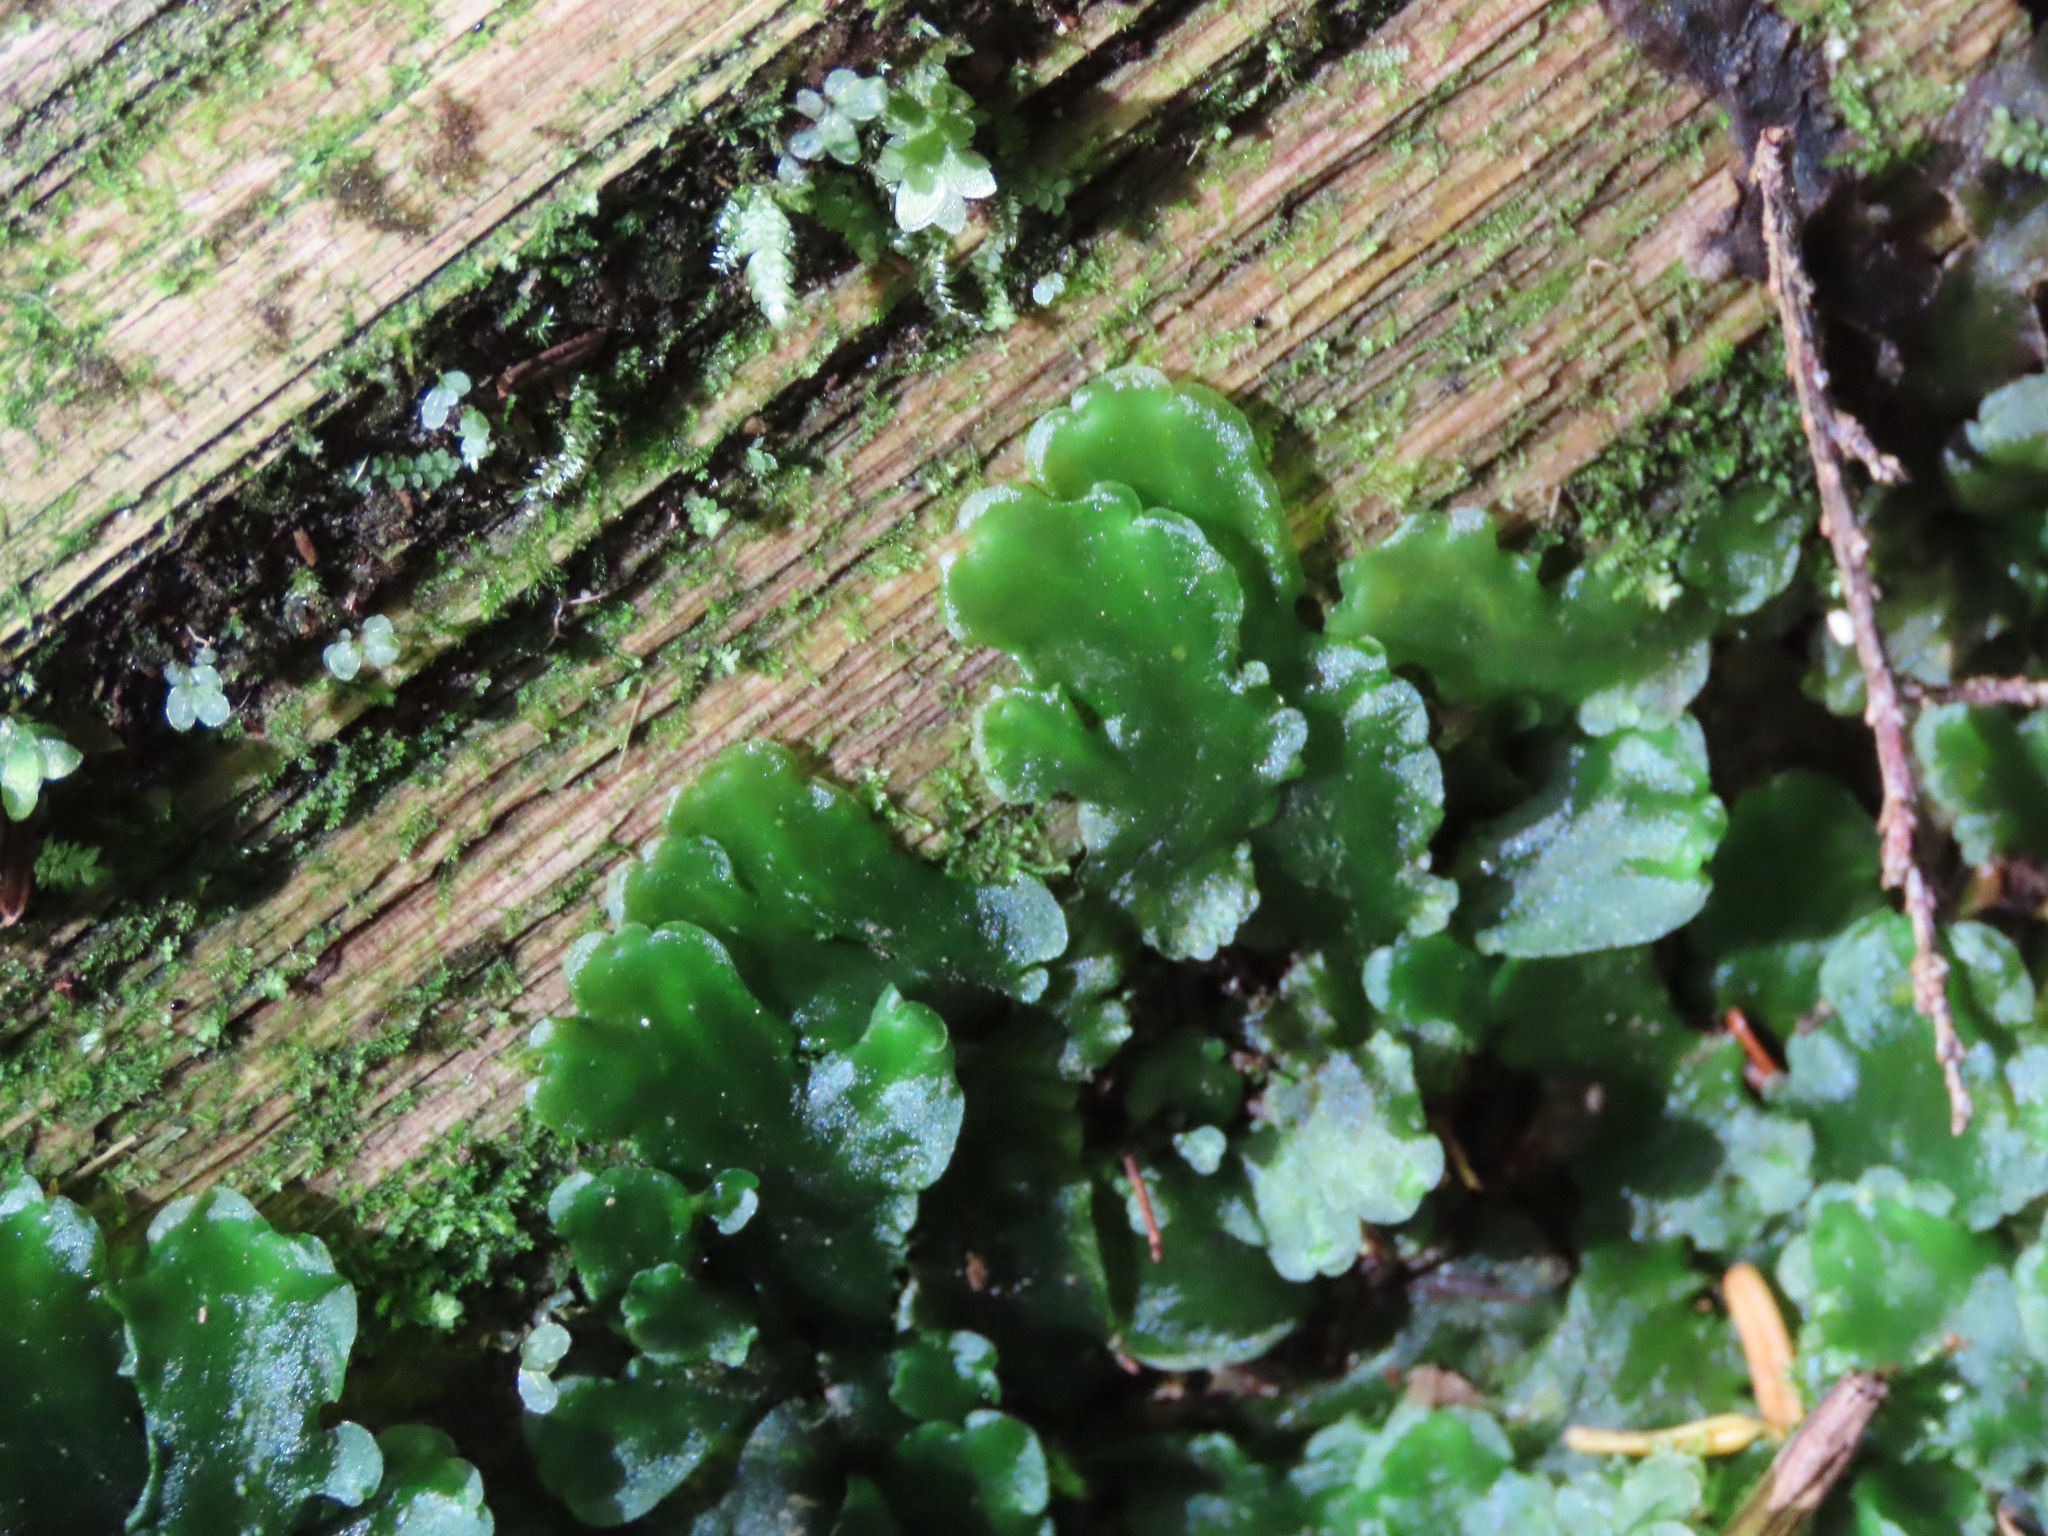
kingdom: Plantae
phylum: Marchantiophyta
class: Jungermanniopsida
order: Pelliales
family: Pelliaceae
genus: Pellia
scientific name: Pellia neesiana
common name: Nees  pellia
